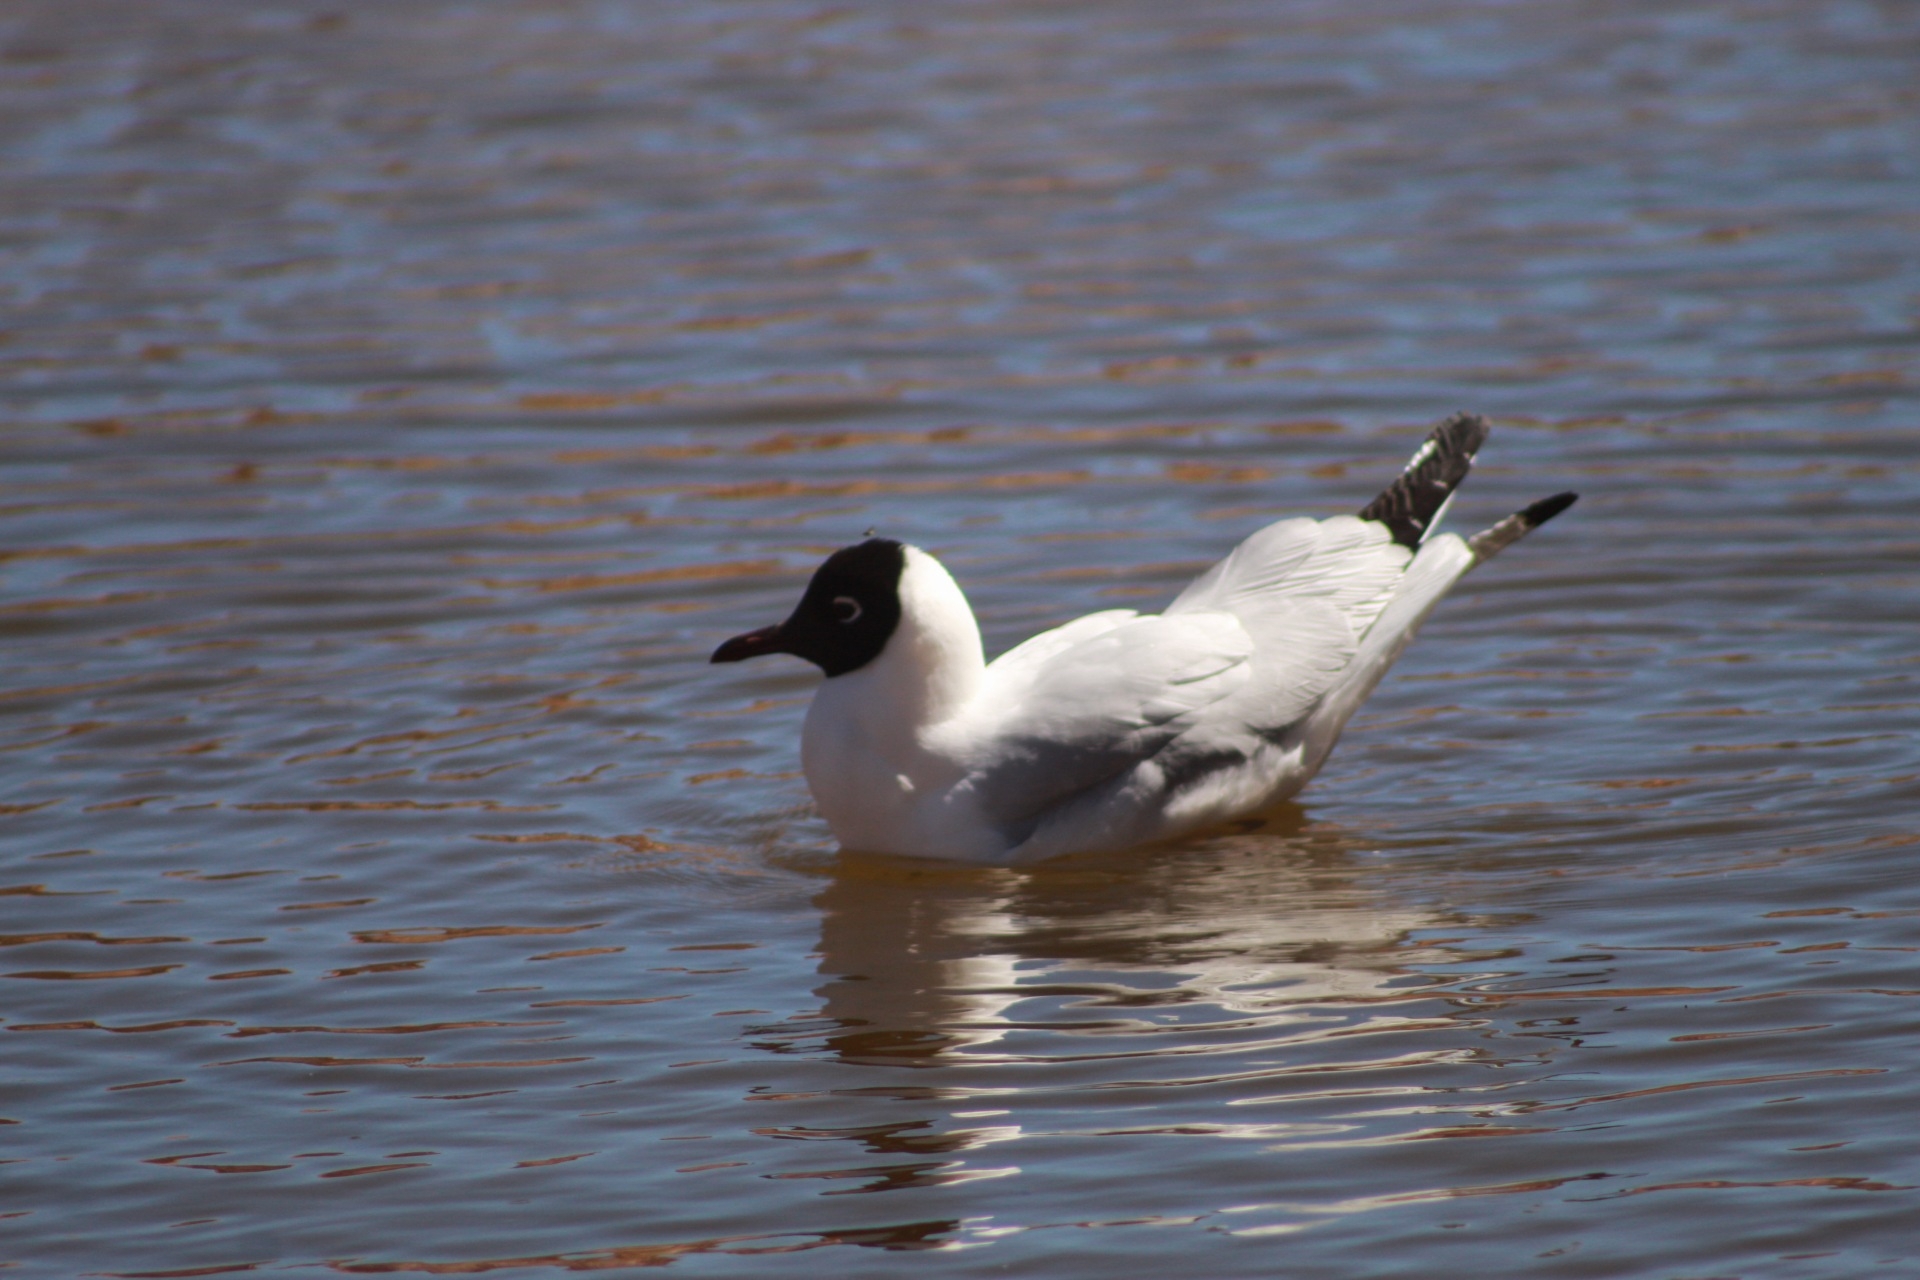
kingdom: Animalia
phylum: Chordata
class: Aves
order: Charadriiformes
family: Laridae
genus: Chroicocephalus
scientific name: Chroicocephalus serranus
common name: Andean gull
